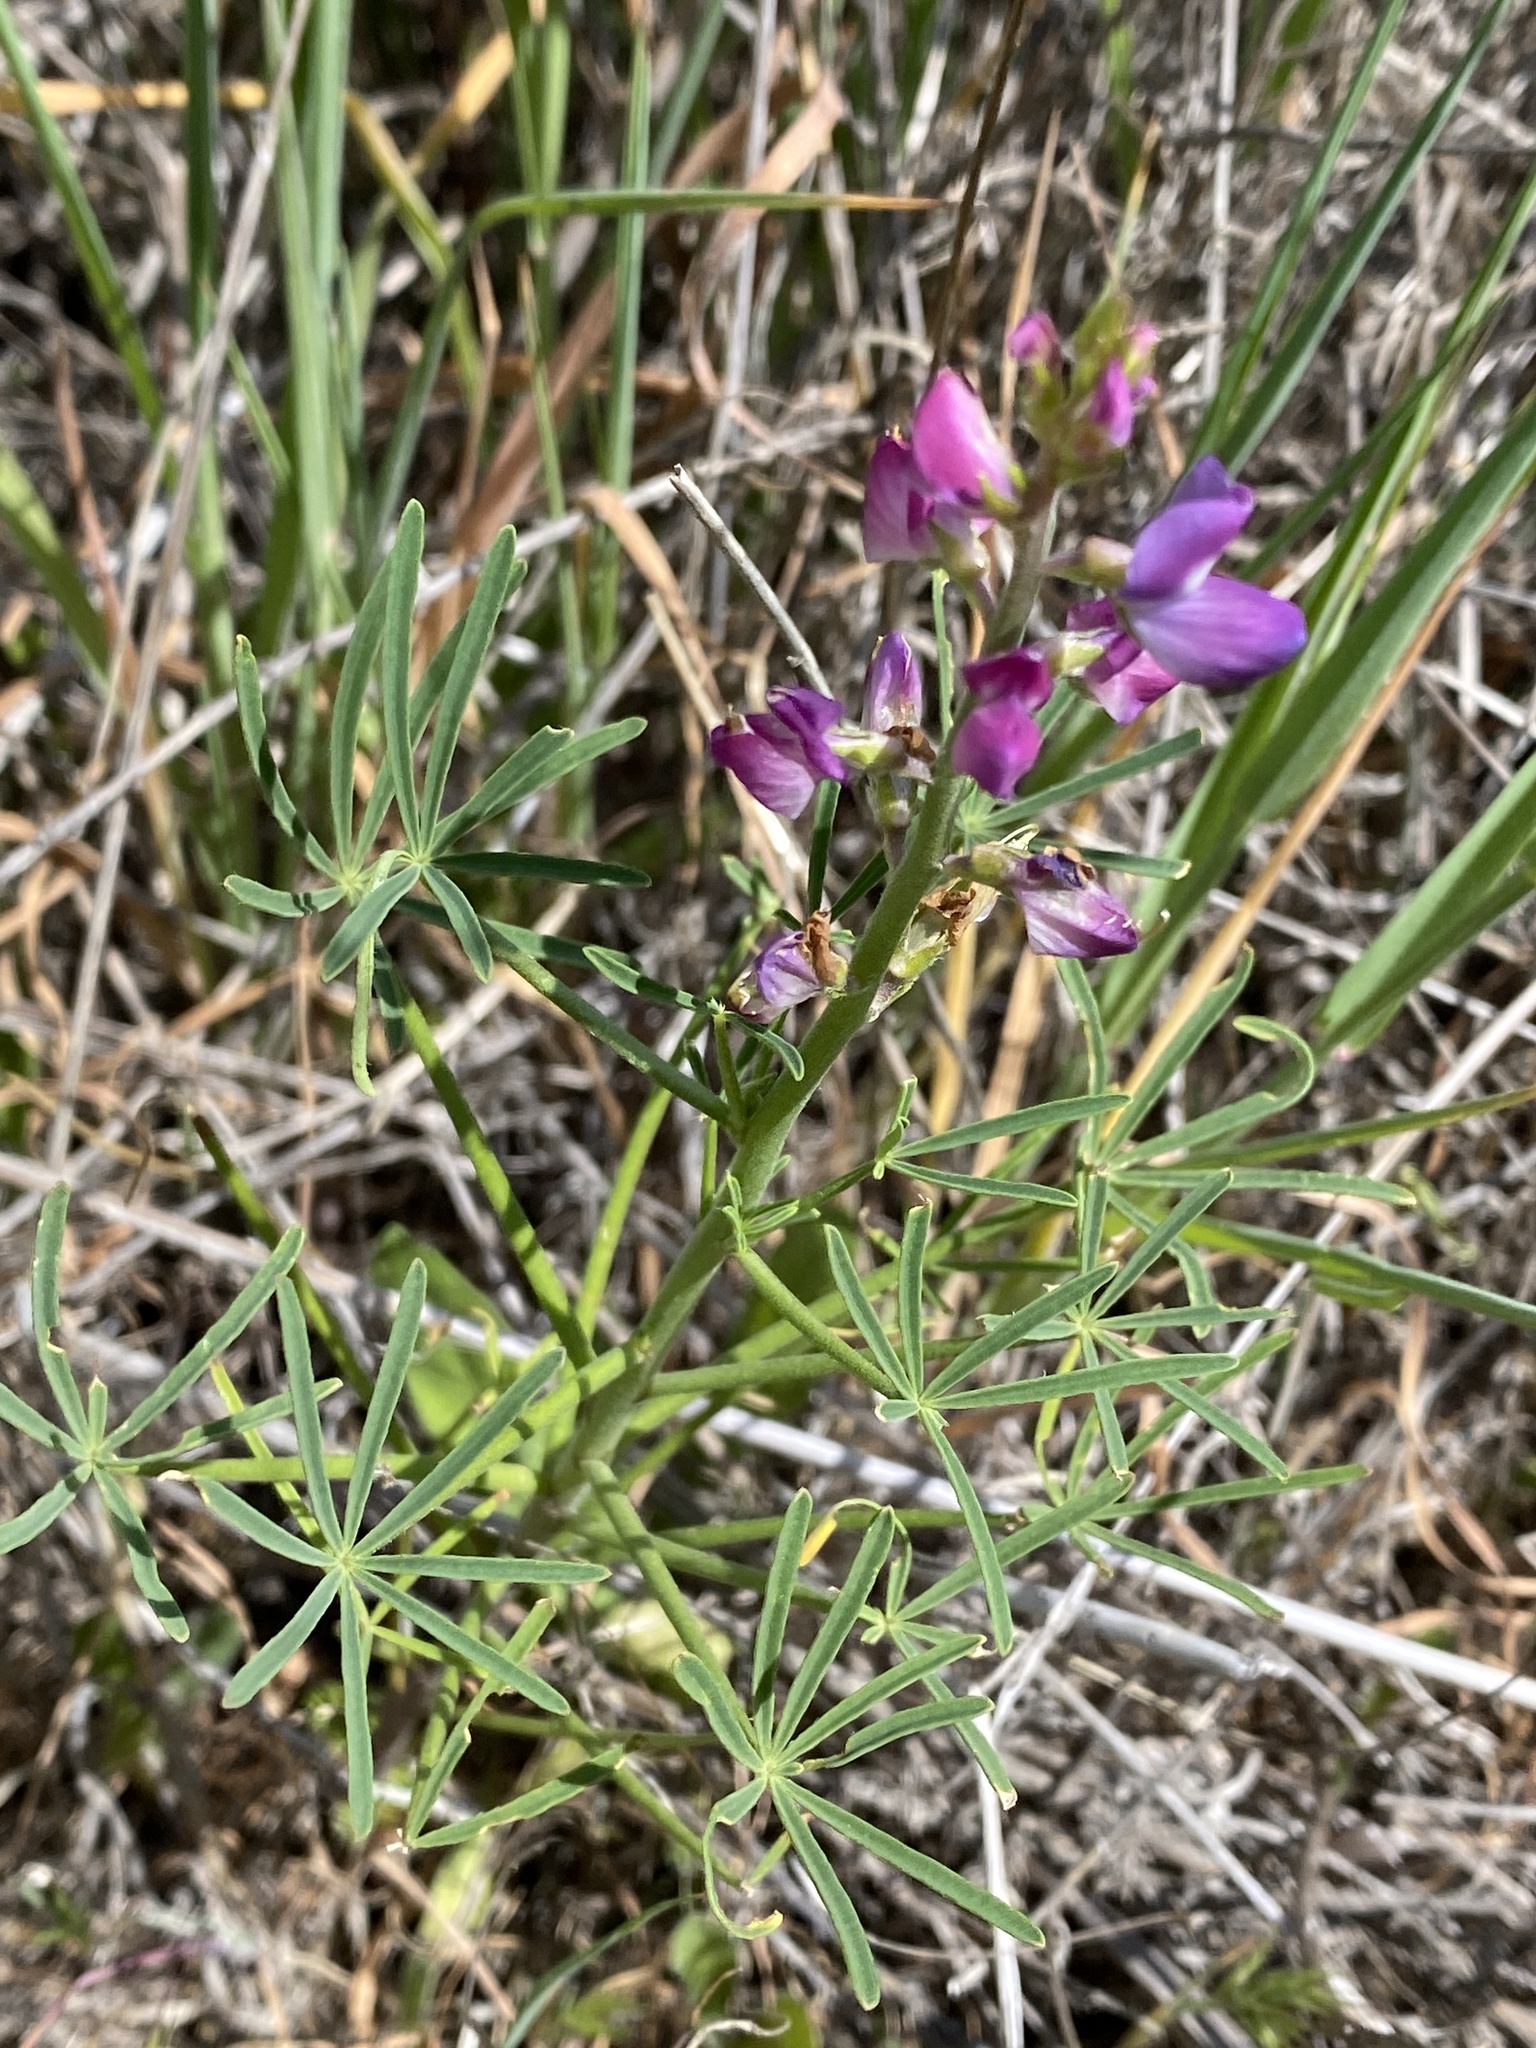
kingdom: Plantae
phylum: Tracheophyta
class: Magnoliopsida
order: Fabales
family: Fabaceae
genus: Lupinus
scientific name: Lupinus truncatus
